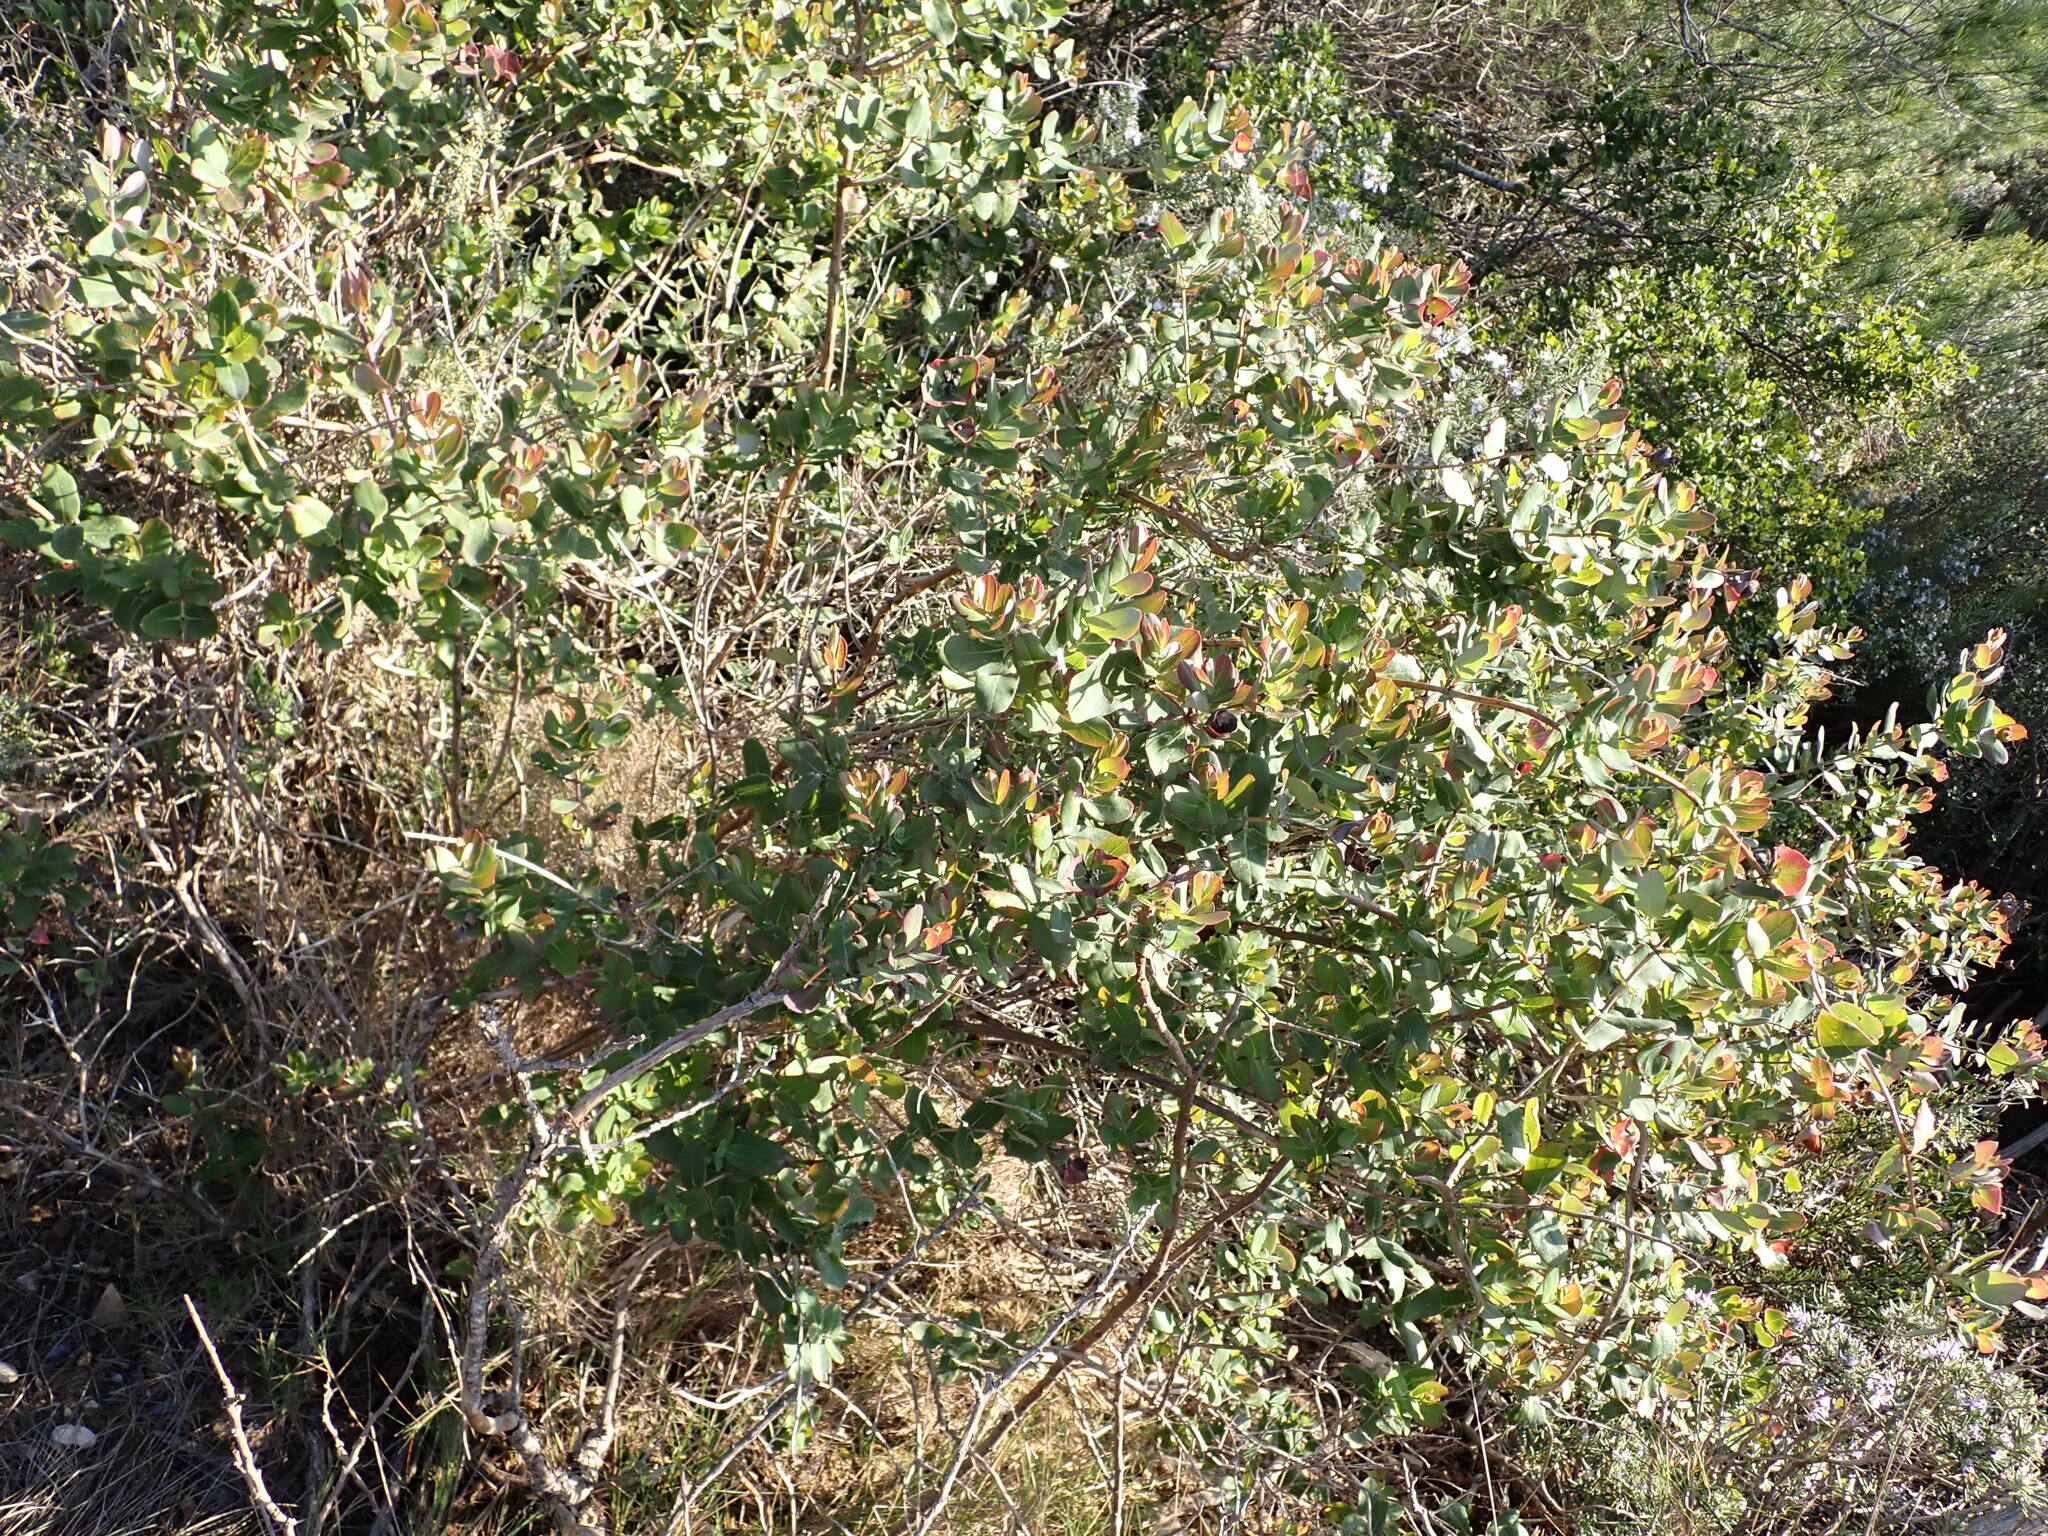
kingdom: Plantae
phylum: Tracheophyta
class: Magnoliopsida
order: Dipsacales
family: Caprifoliaceae
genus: Lonicera
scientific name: Lonicera implexa
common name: Minorca honeysuckle
